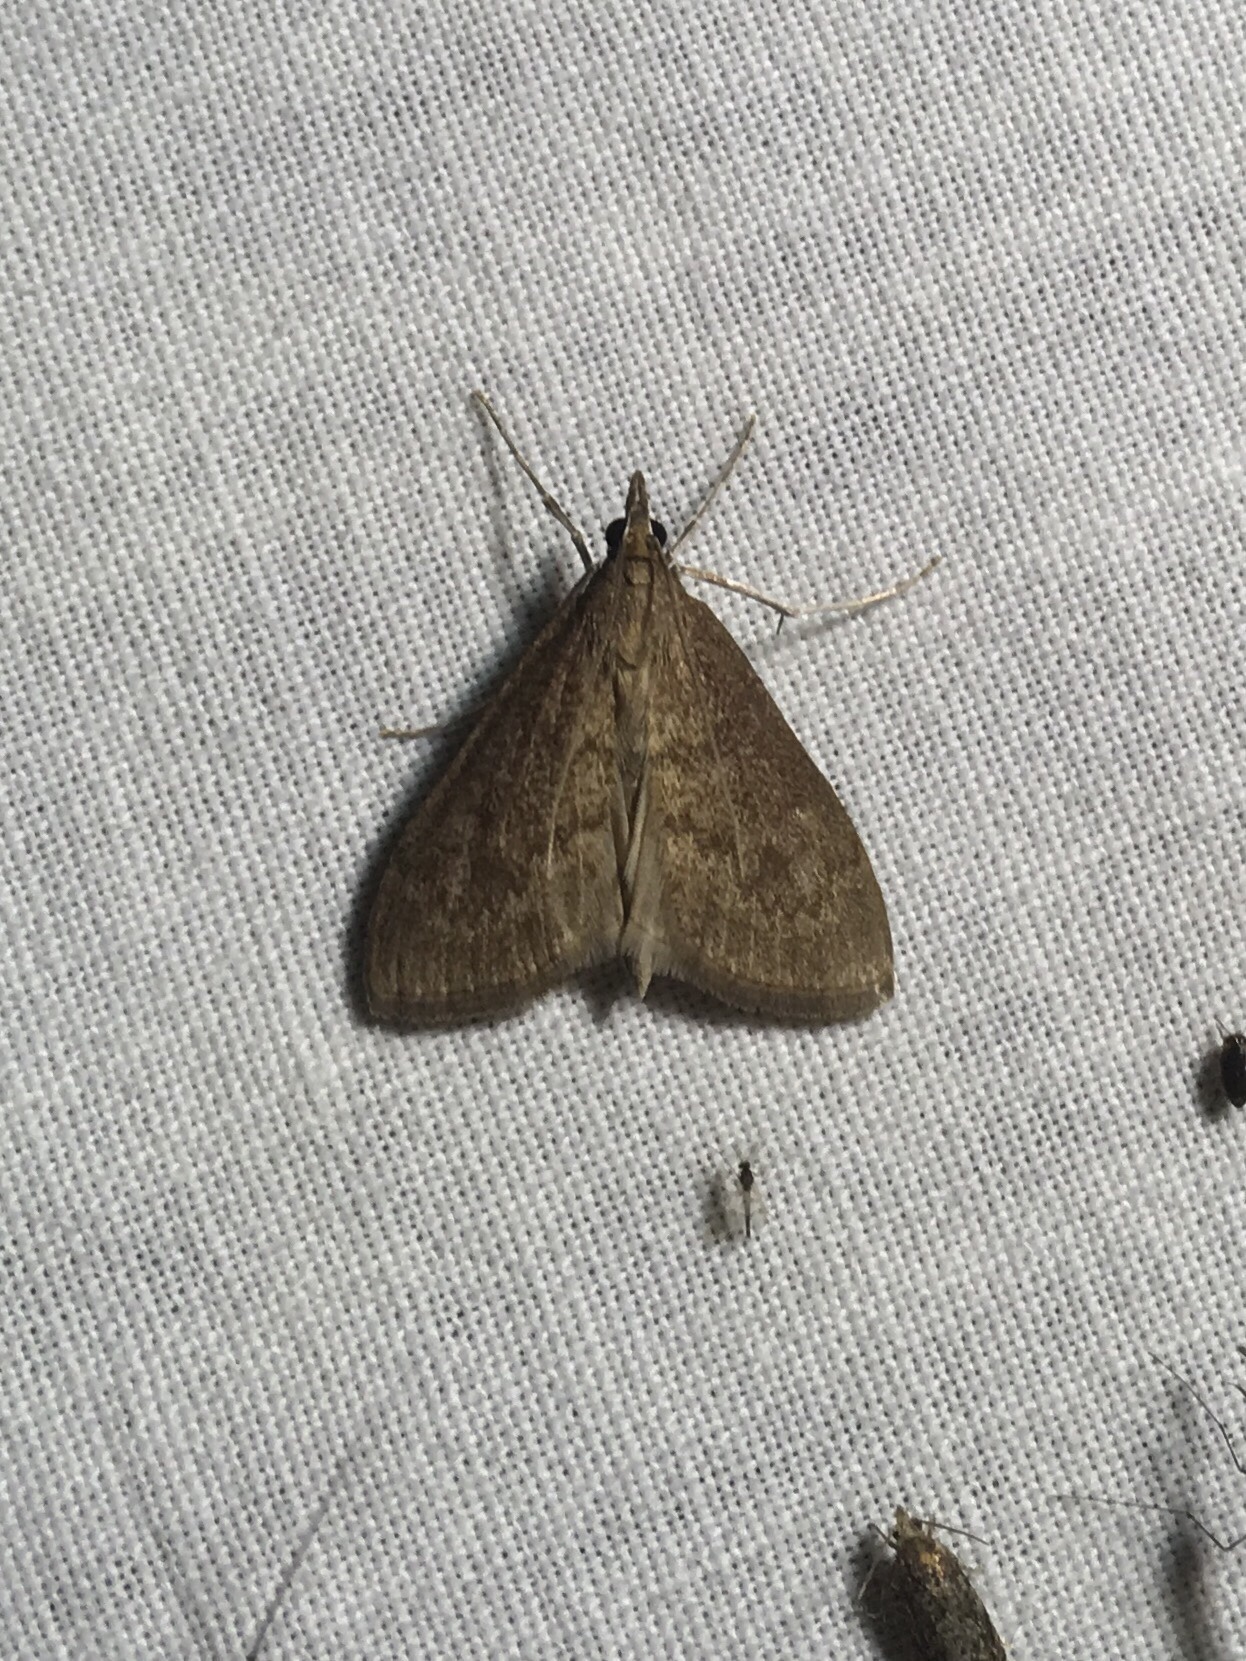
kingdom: Animalia
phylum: Arthropoda
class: Insecta
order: Lepidoptera
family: Crambidae
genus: Saucrobotys
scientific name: Saucrobotys futilalis
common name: Dogbane saucrobotys moth
